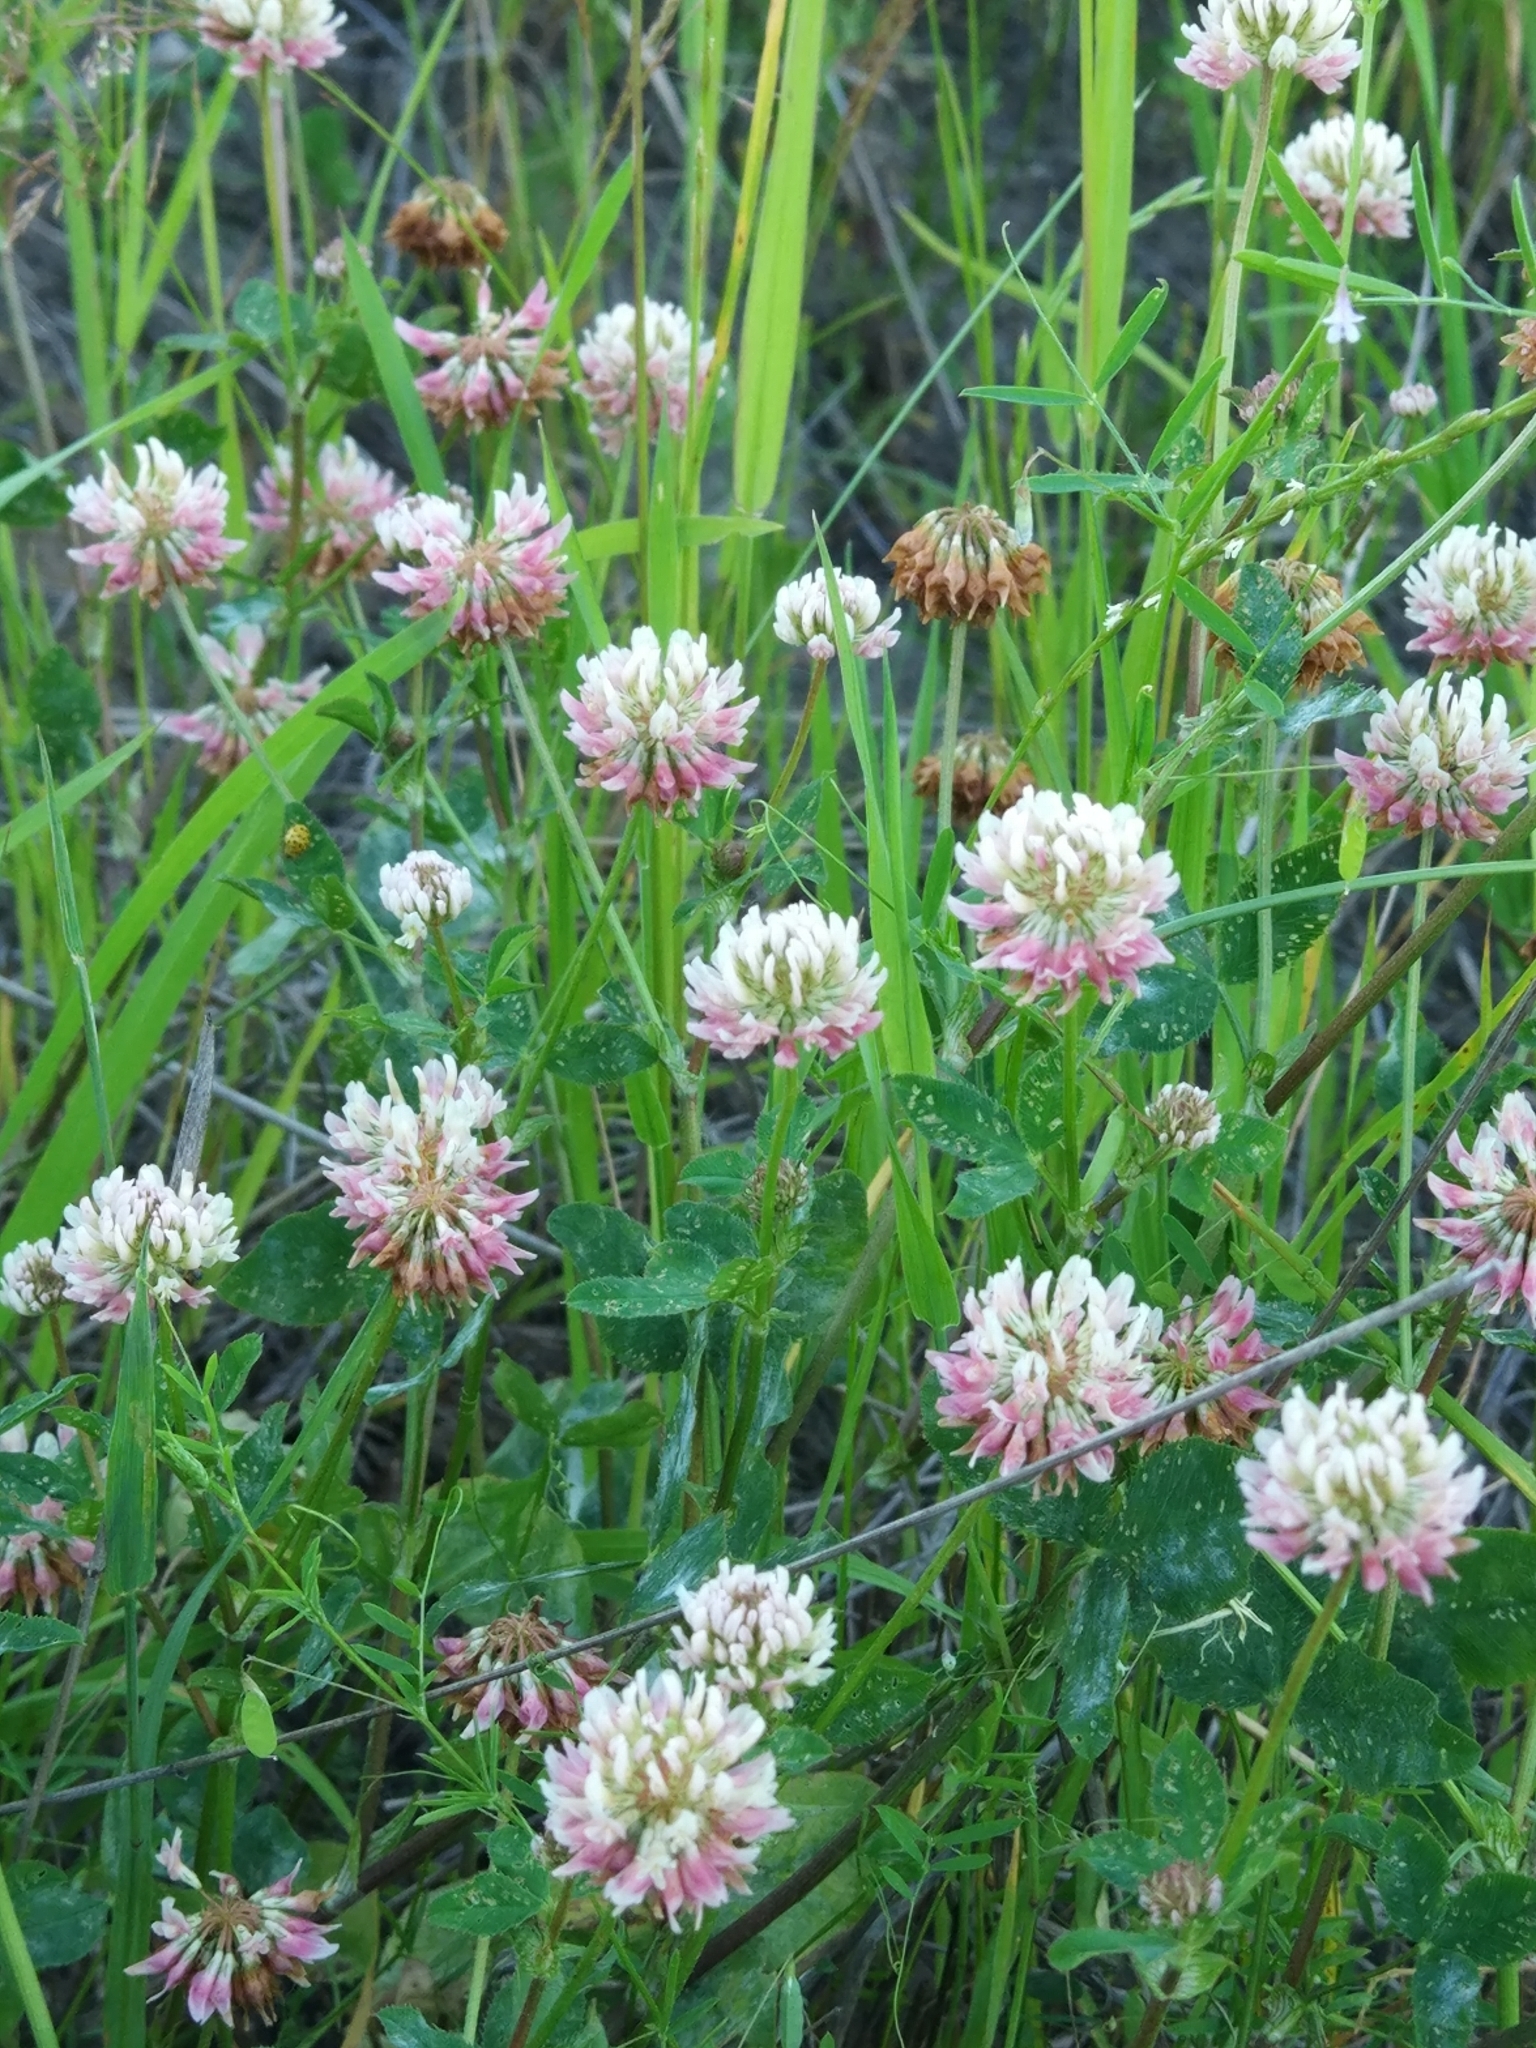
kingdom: Plantae
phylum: Tracheophyta
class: Magnoliopsida
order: Fabales
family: Fabaceae
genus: Trifolium
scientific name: Trifolium hybridum
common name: Alsike clover
